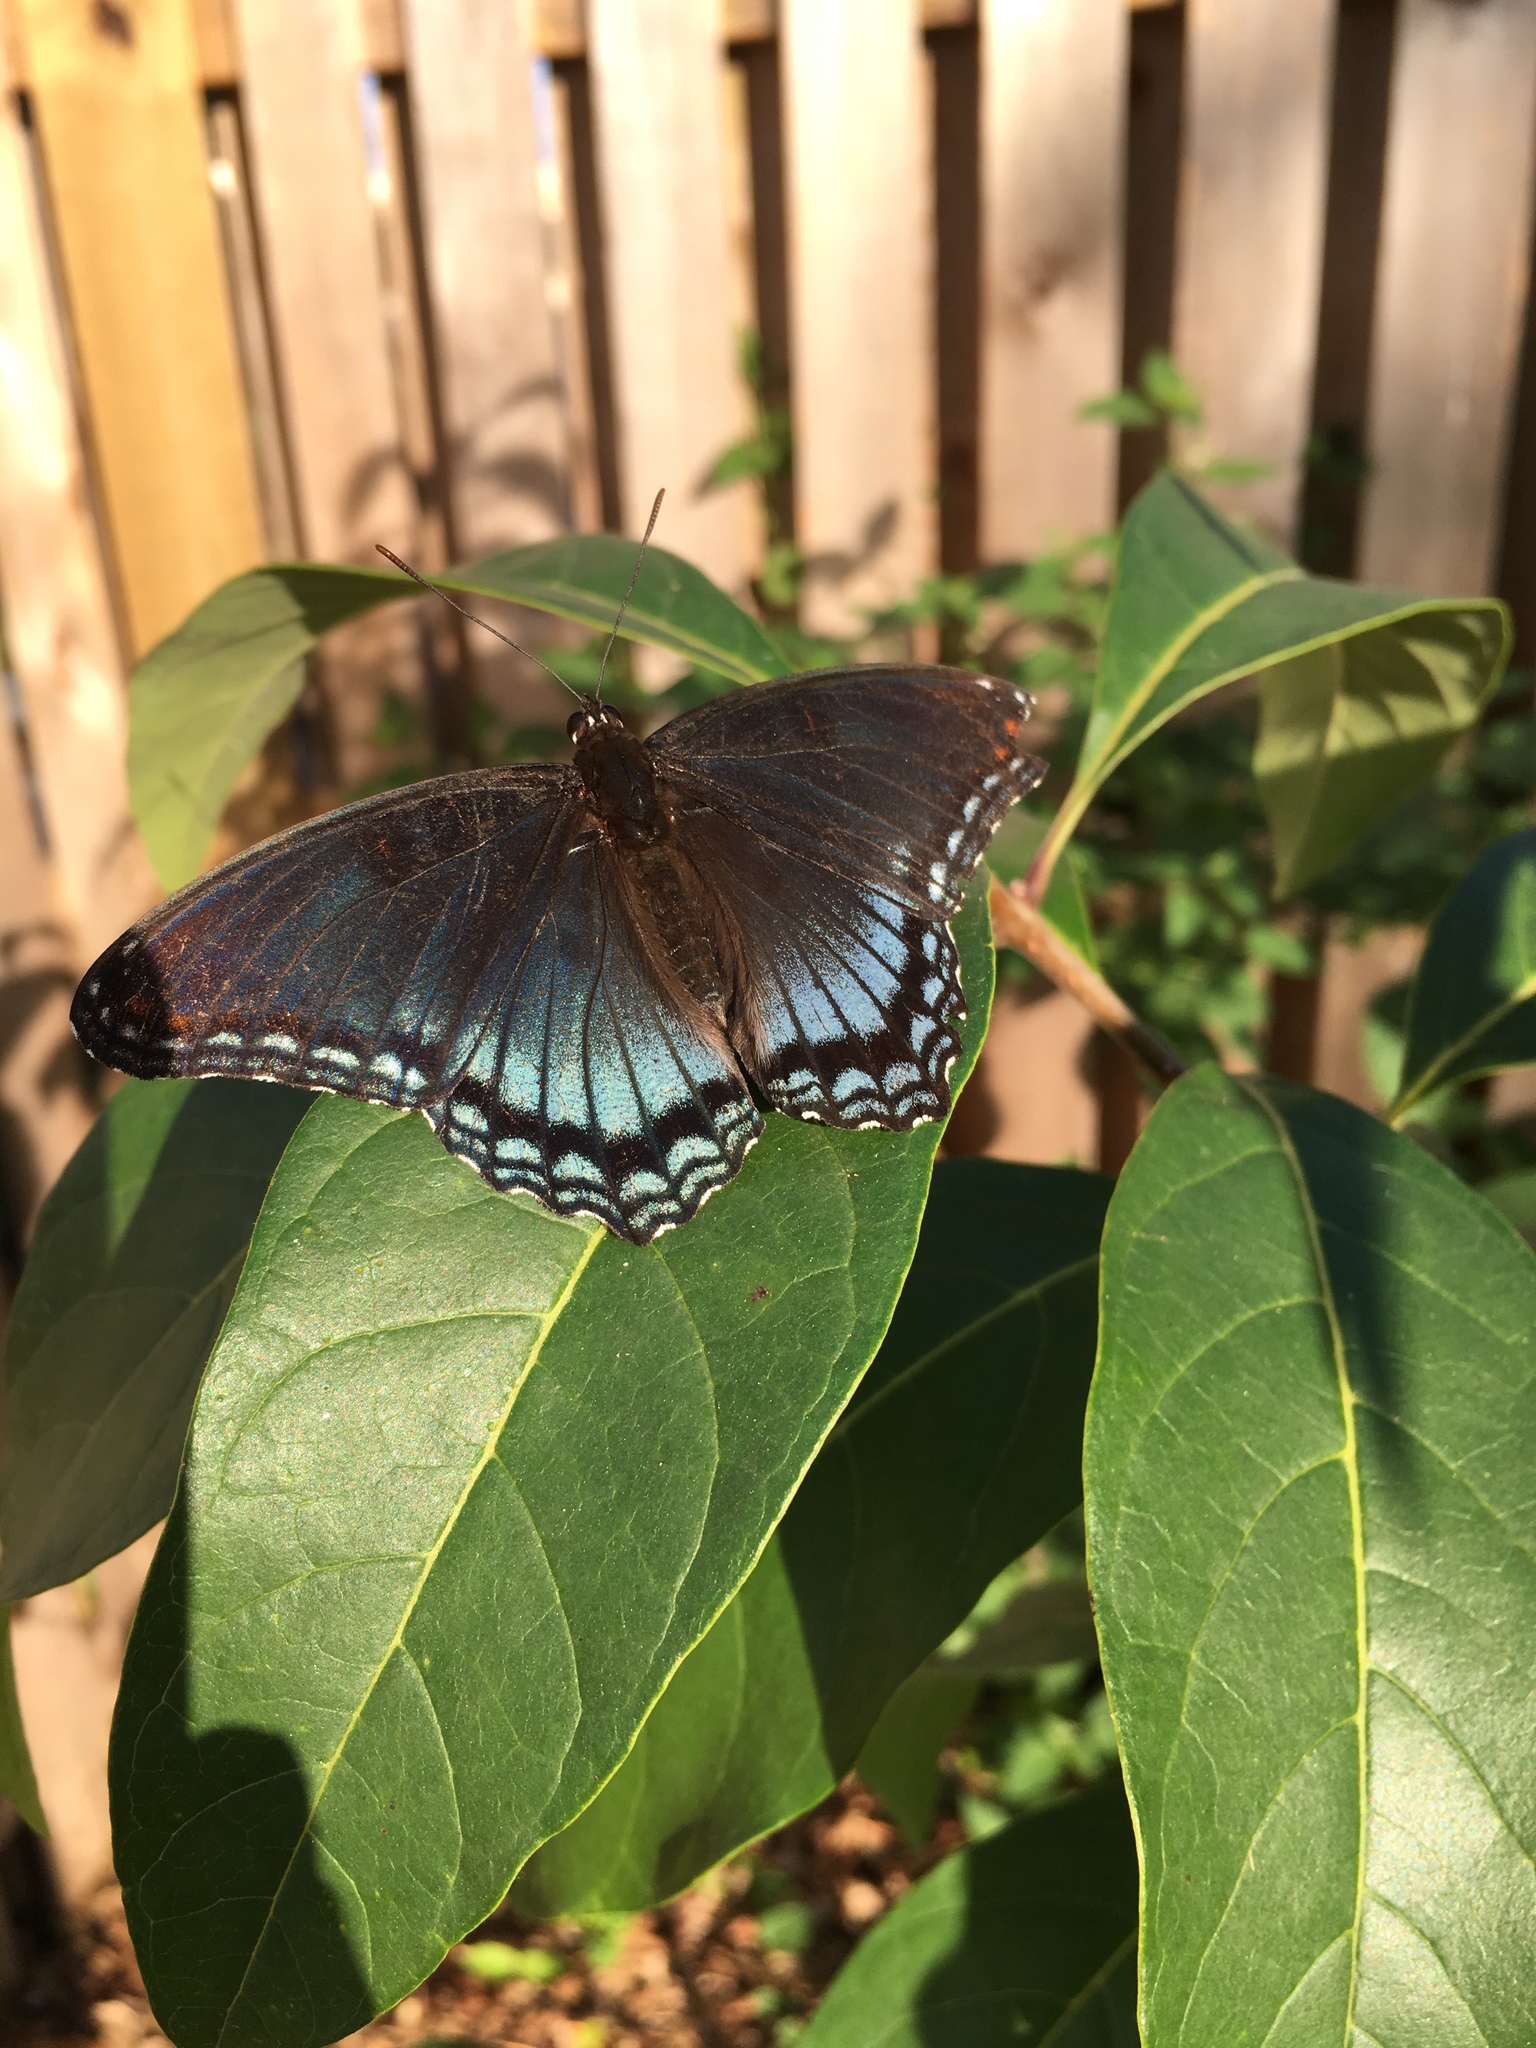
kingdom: Animalia
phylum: Arthropoda
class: Insecta
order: Lepidoptera
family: Nymphalidae
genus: Limenitis
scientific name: Limenitis arthemis
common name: Red-spotted admiral
